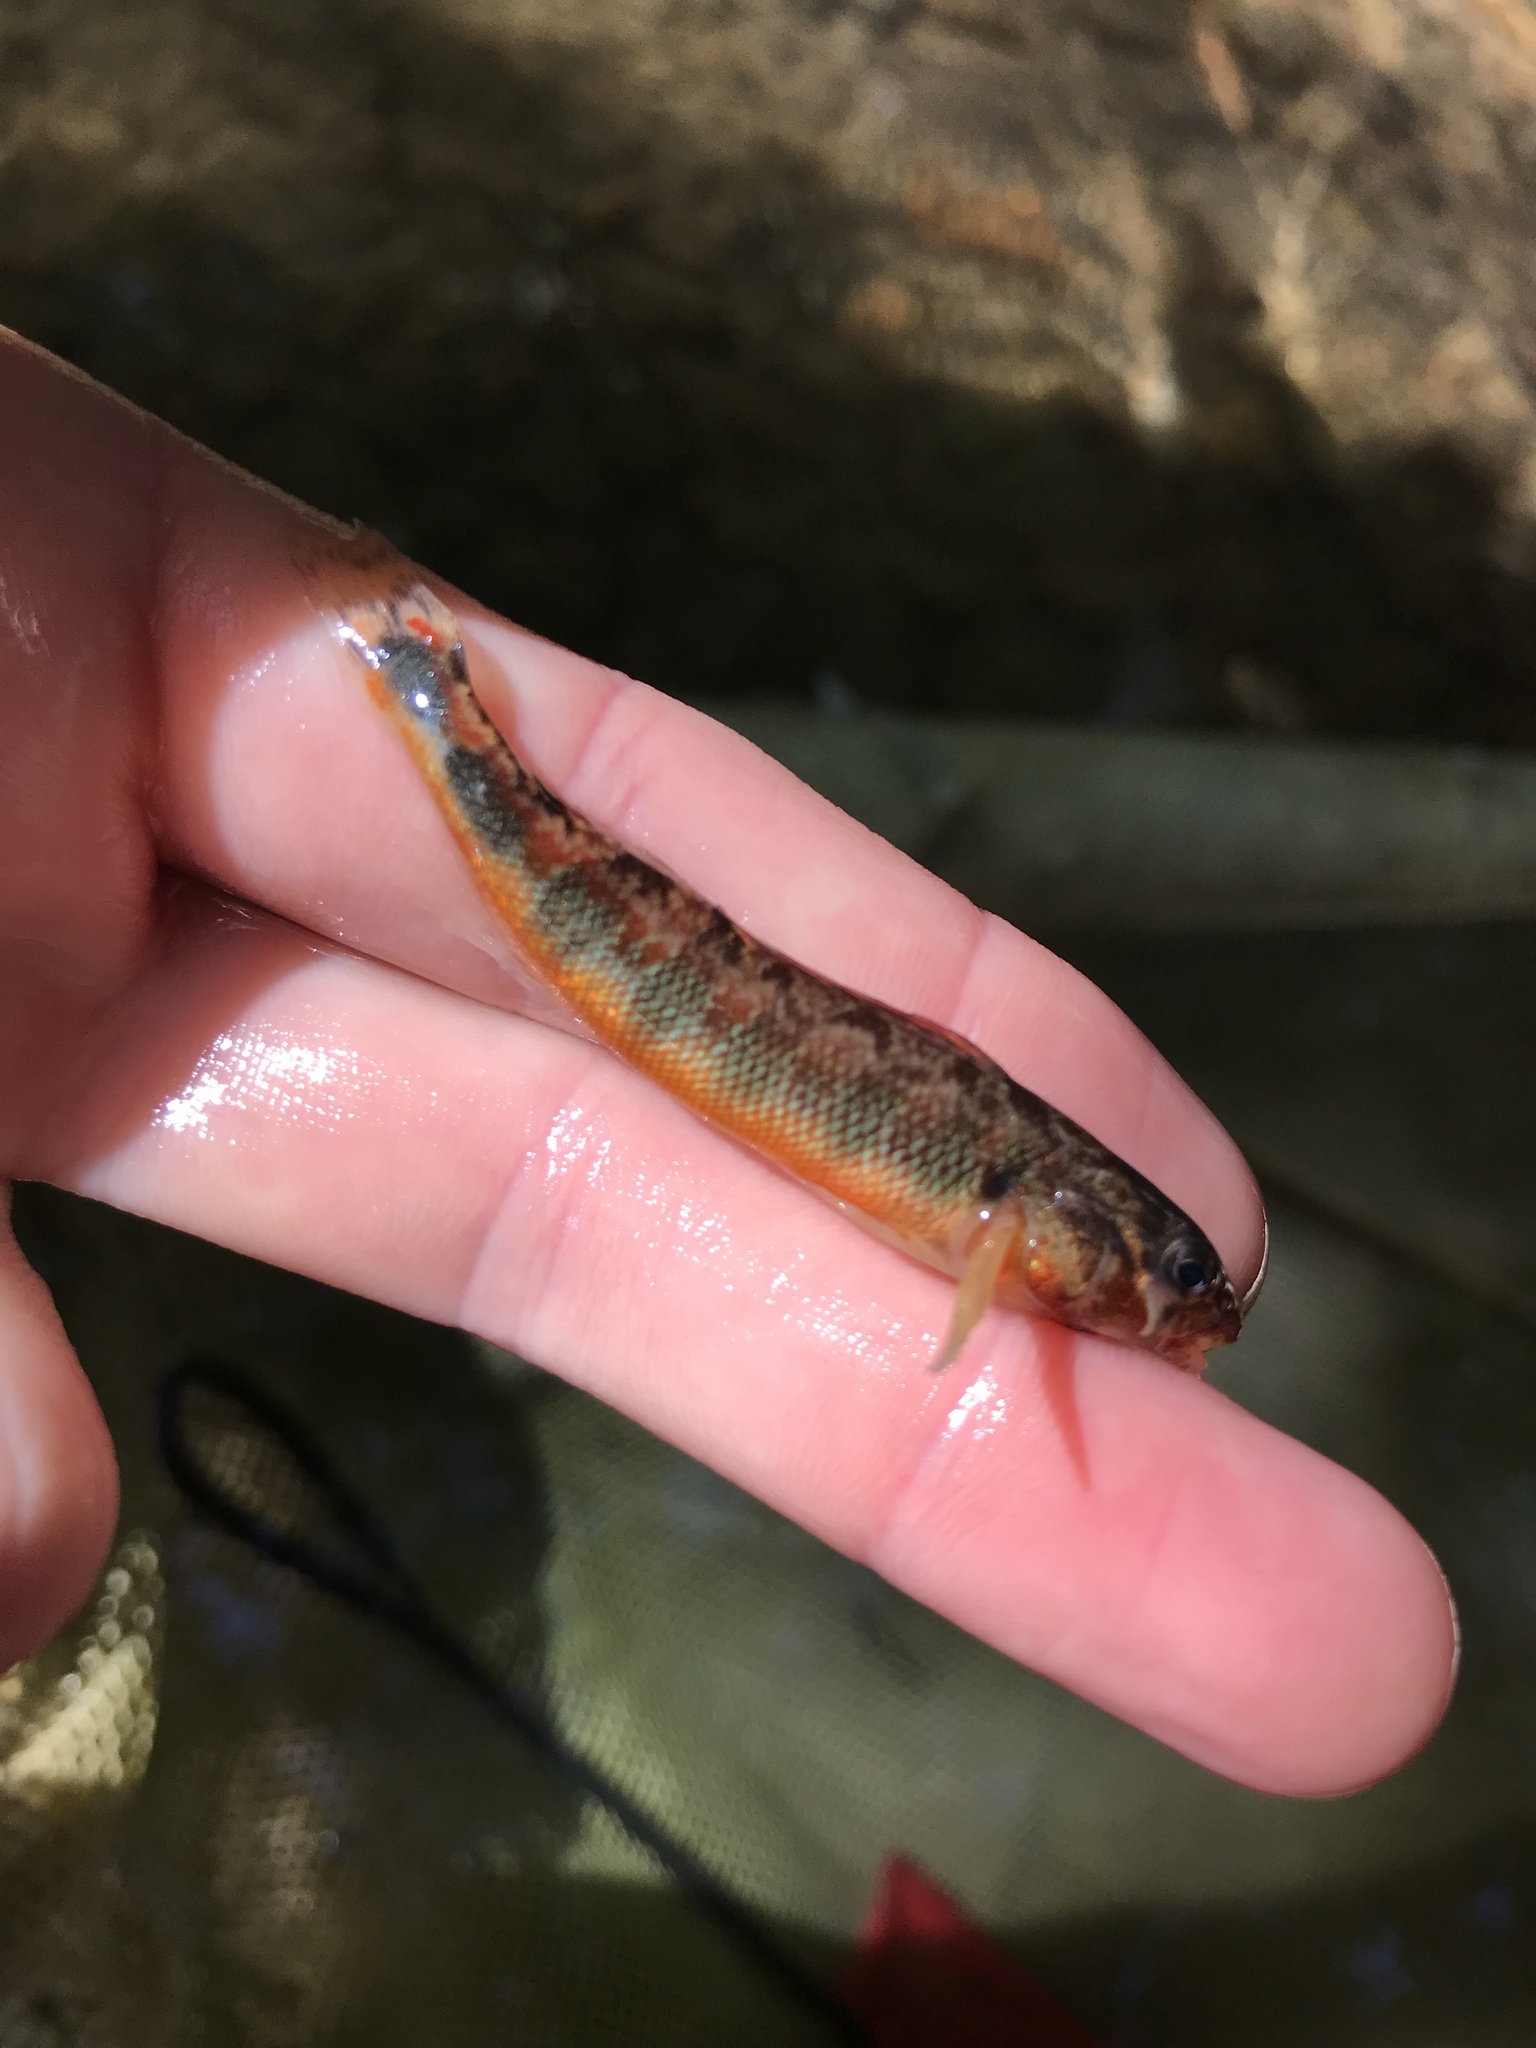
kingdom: Animalia
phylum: Chordata
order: Perciformes
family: Percidae
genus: Percina
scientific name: Percina evides
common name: Gilt darter
